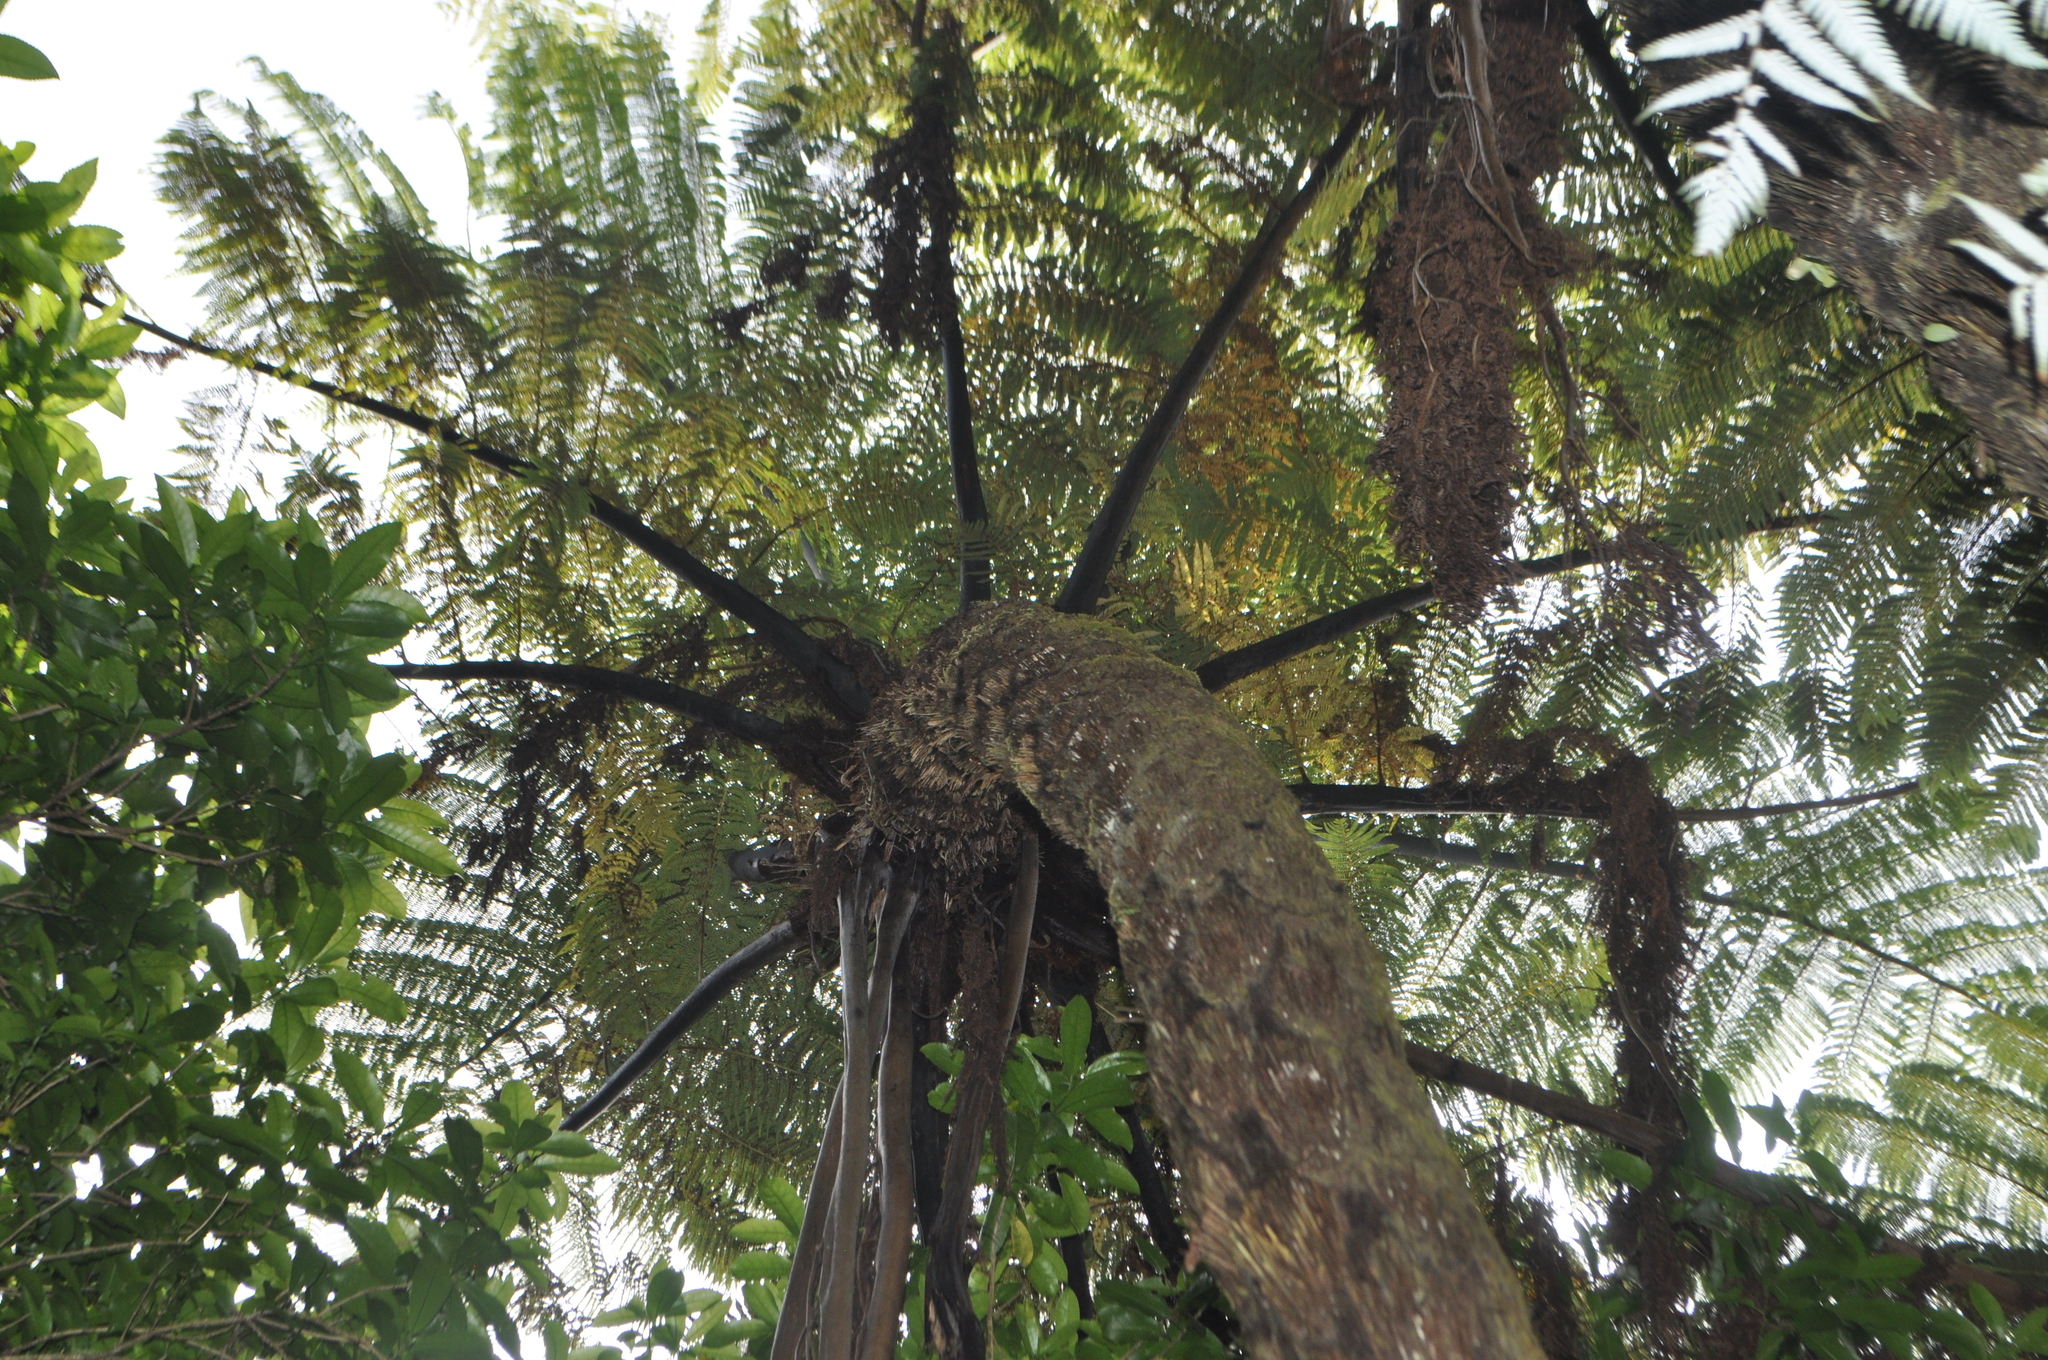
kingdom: Plantae
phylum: Tracheophyta
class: Polypodiopsida
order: Cyatheales
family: Cyatheaceae
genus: Sphaeropteris
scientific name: Sphaeropteris medullaris
